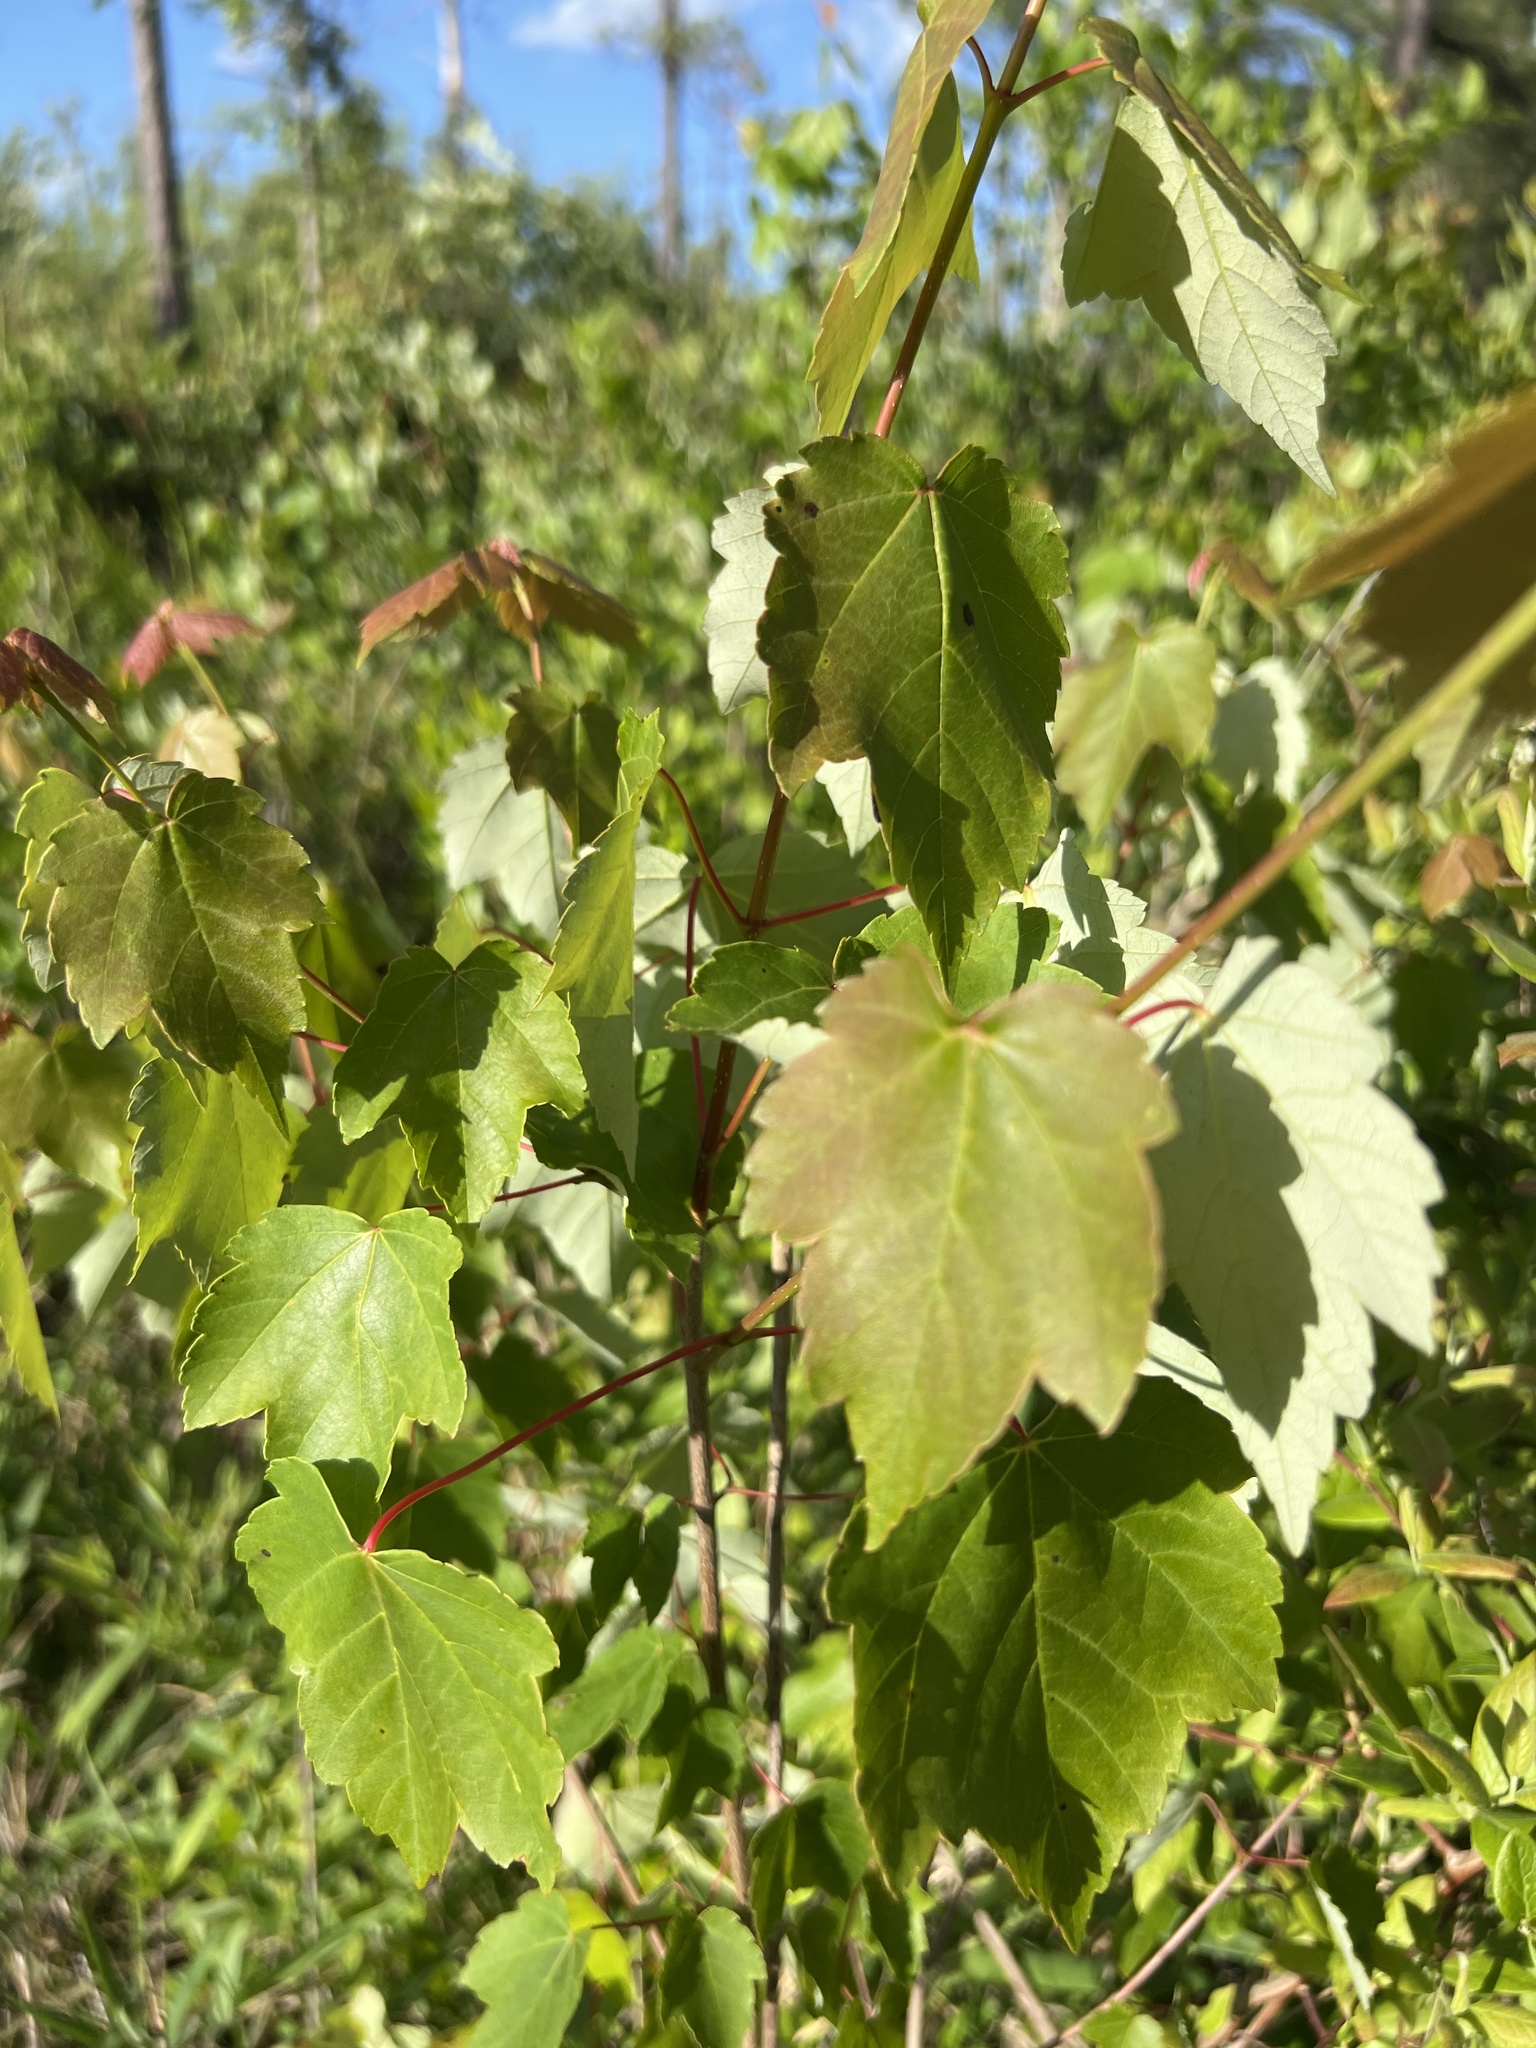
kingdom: Plantae
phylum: Tracheophyta
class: Magnoliopsida
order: Sapindales
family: Sapindaceae
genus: Acer
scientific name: Acer rubrum
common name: Red maple
